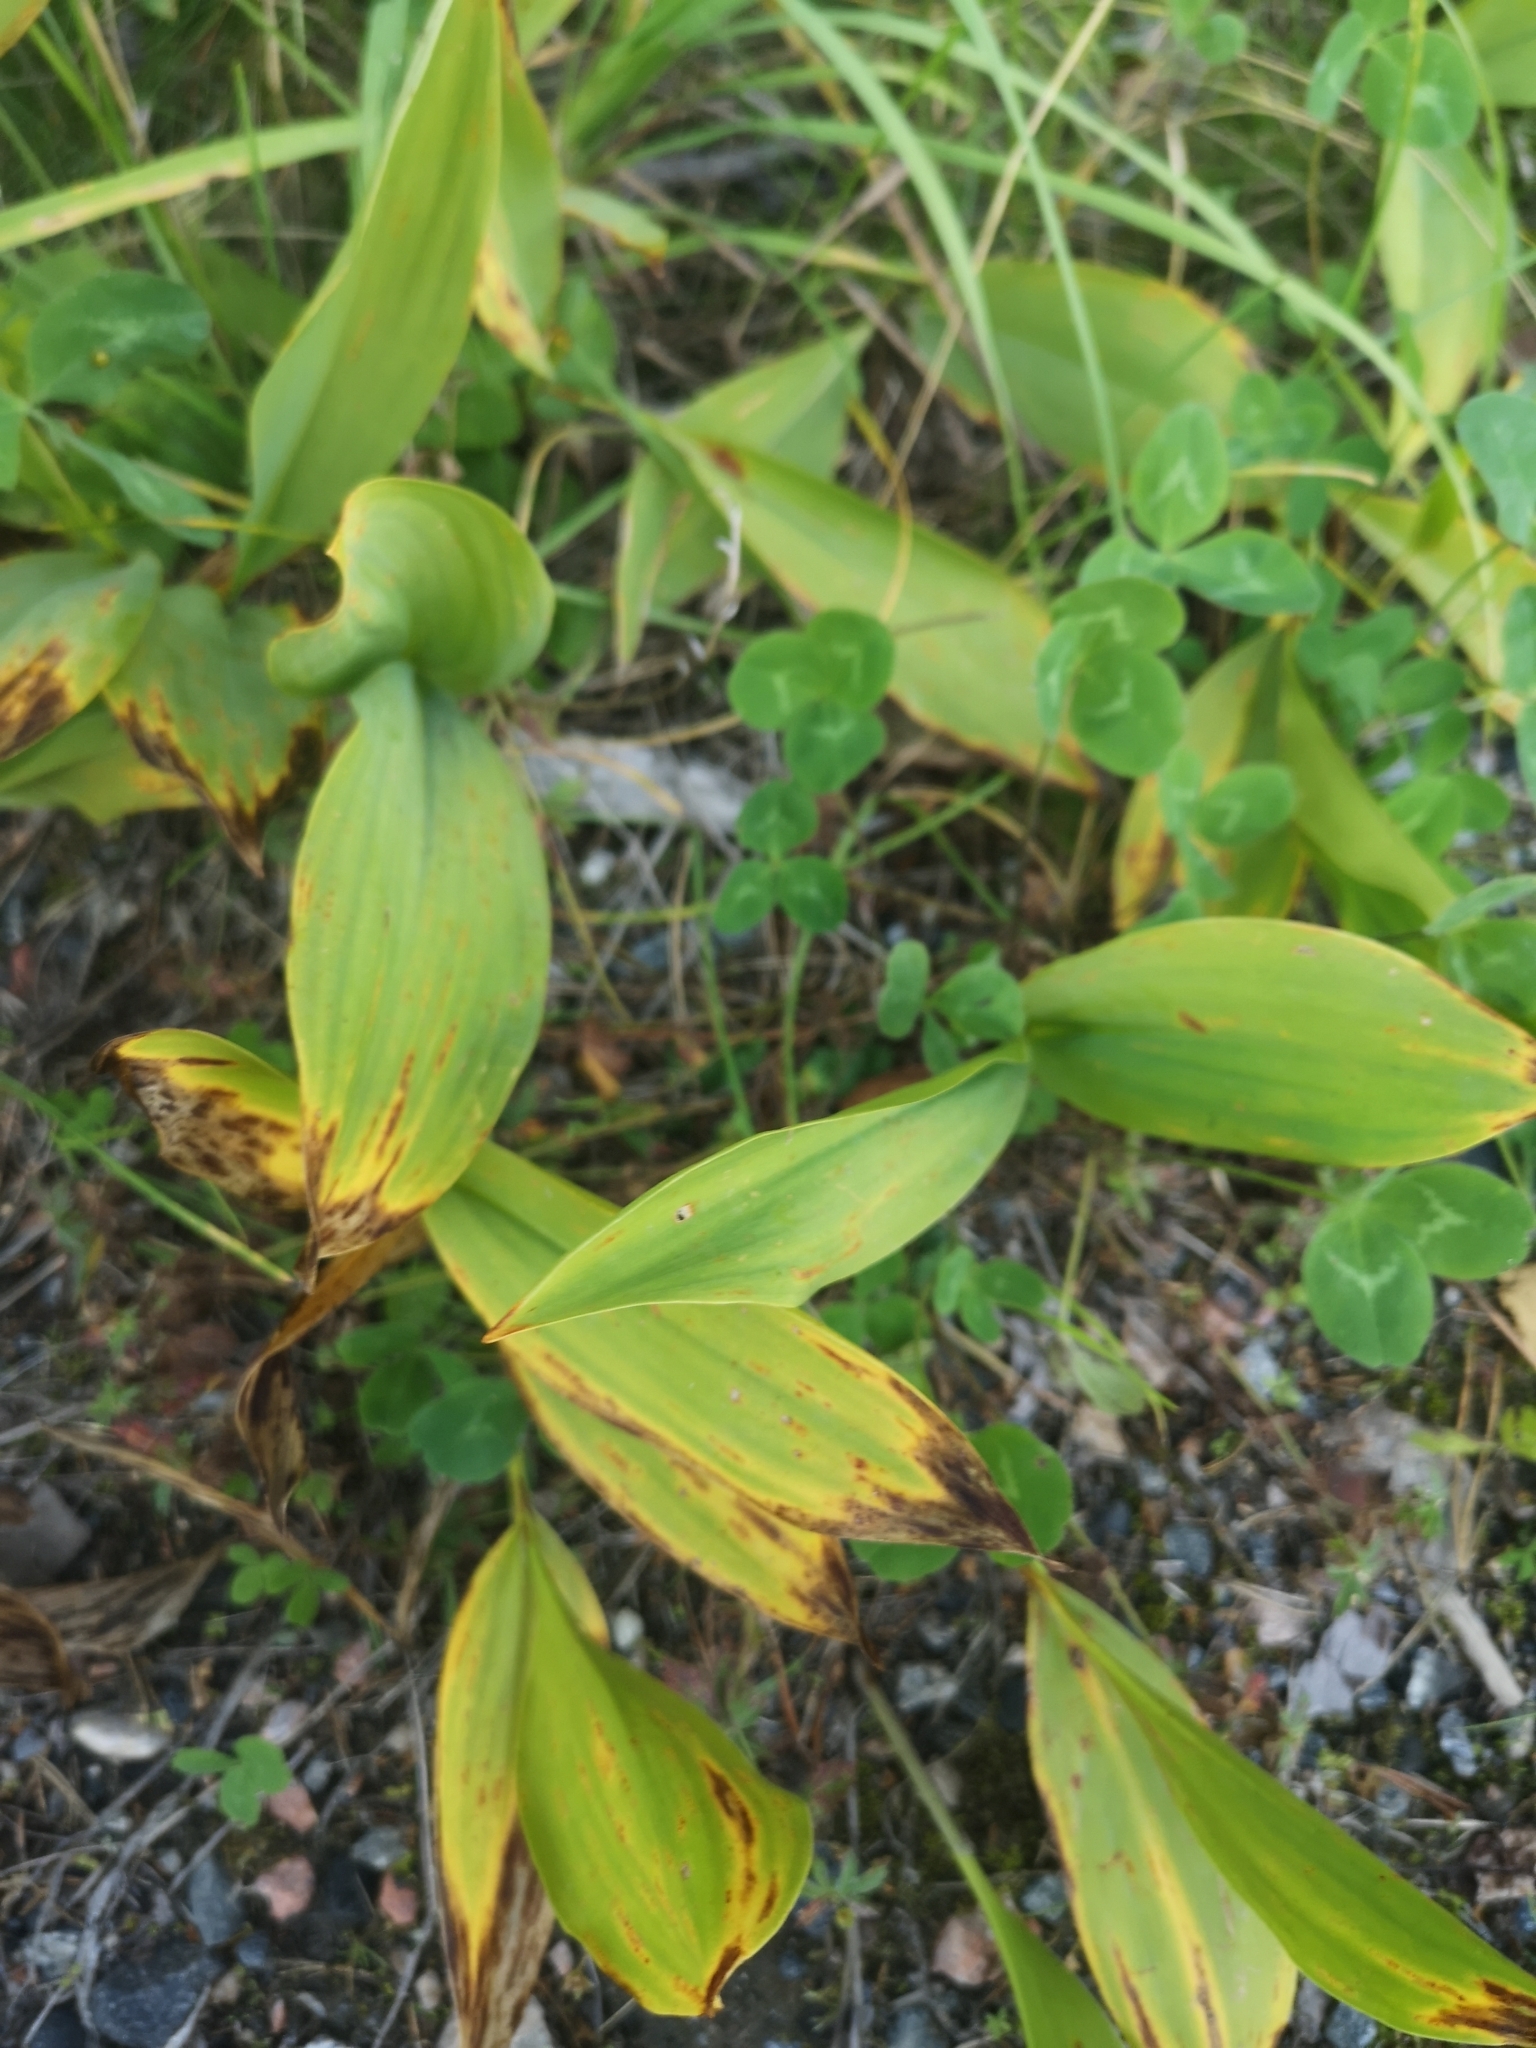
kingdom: Plantae
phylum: Tracheophyta
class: Liliopsida
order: Asparagales
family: Asparagaceae
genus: Convallaria
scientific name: Convallaria majalis
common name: Lily-of-the-valley
